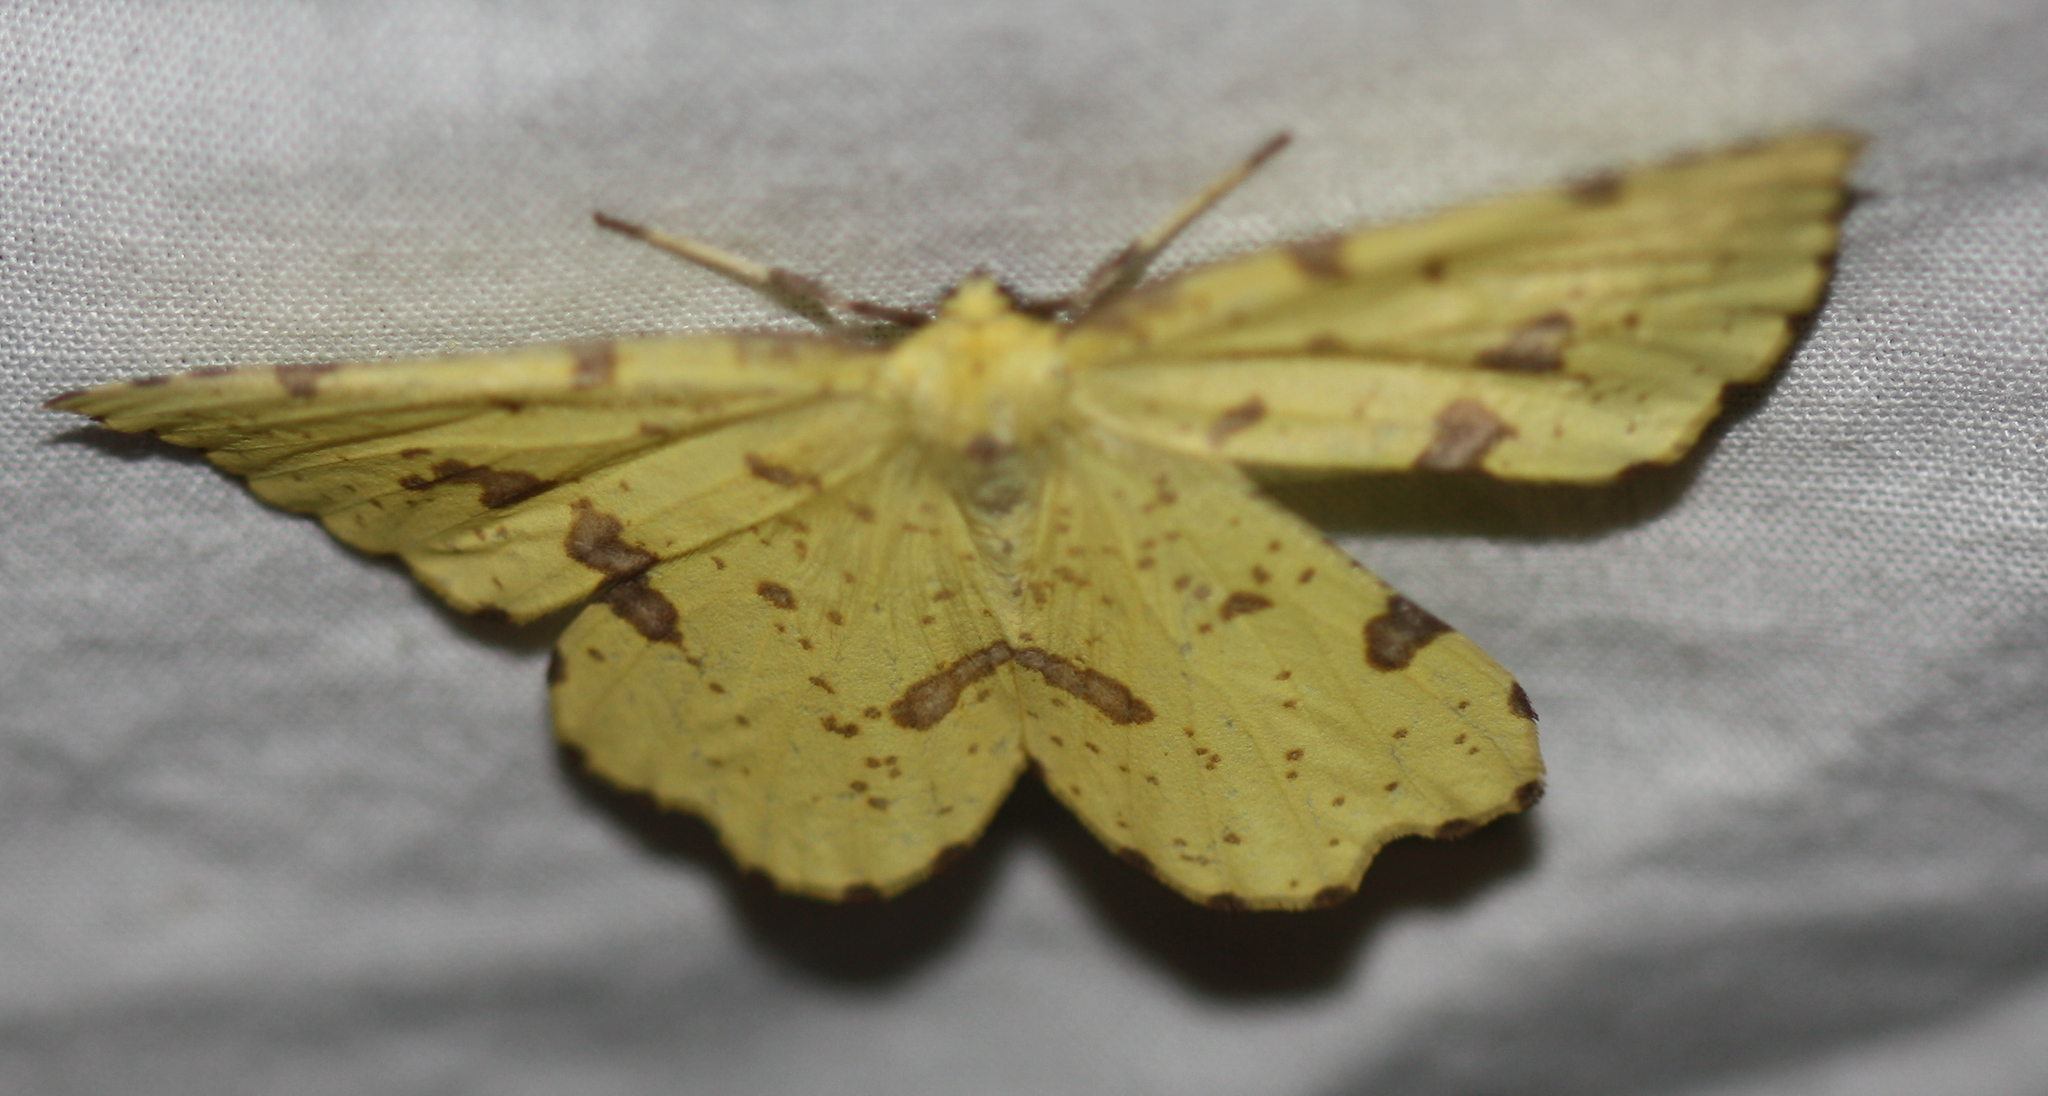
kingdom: Animalia
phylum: Arthropoda
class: Insecta
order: Lepidoptera
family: Geometridae
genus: Xanthotype
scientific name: Xanthotype
